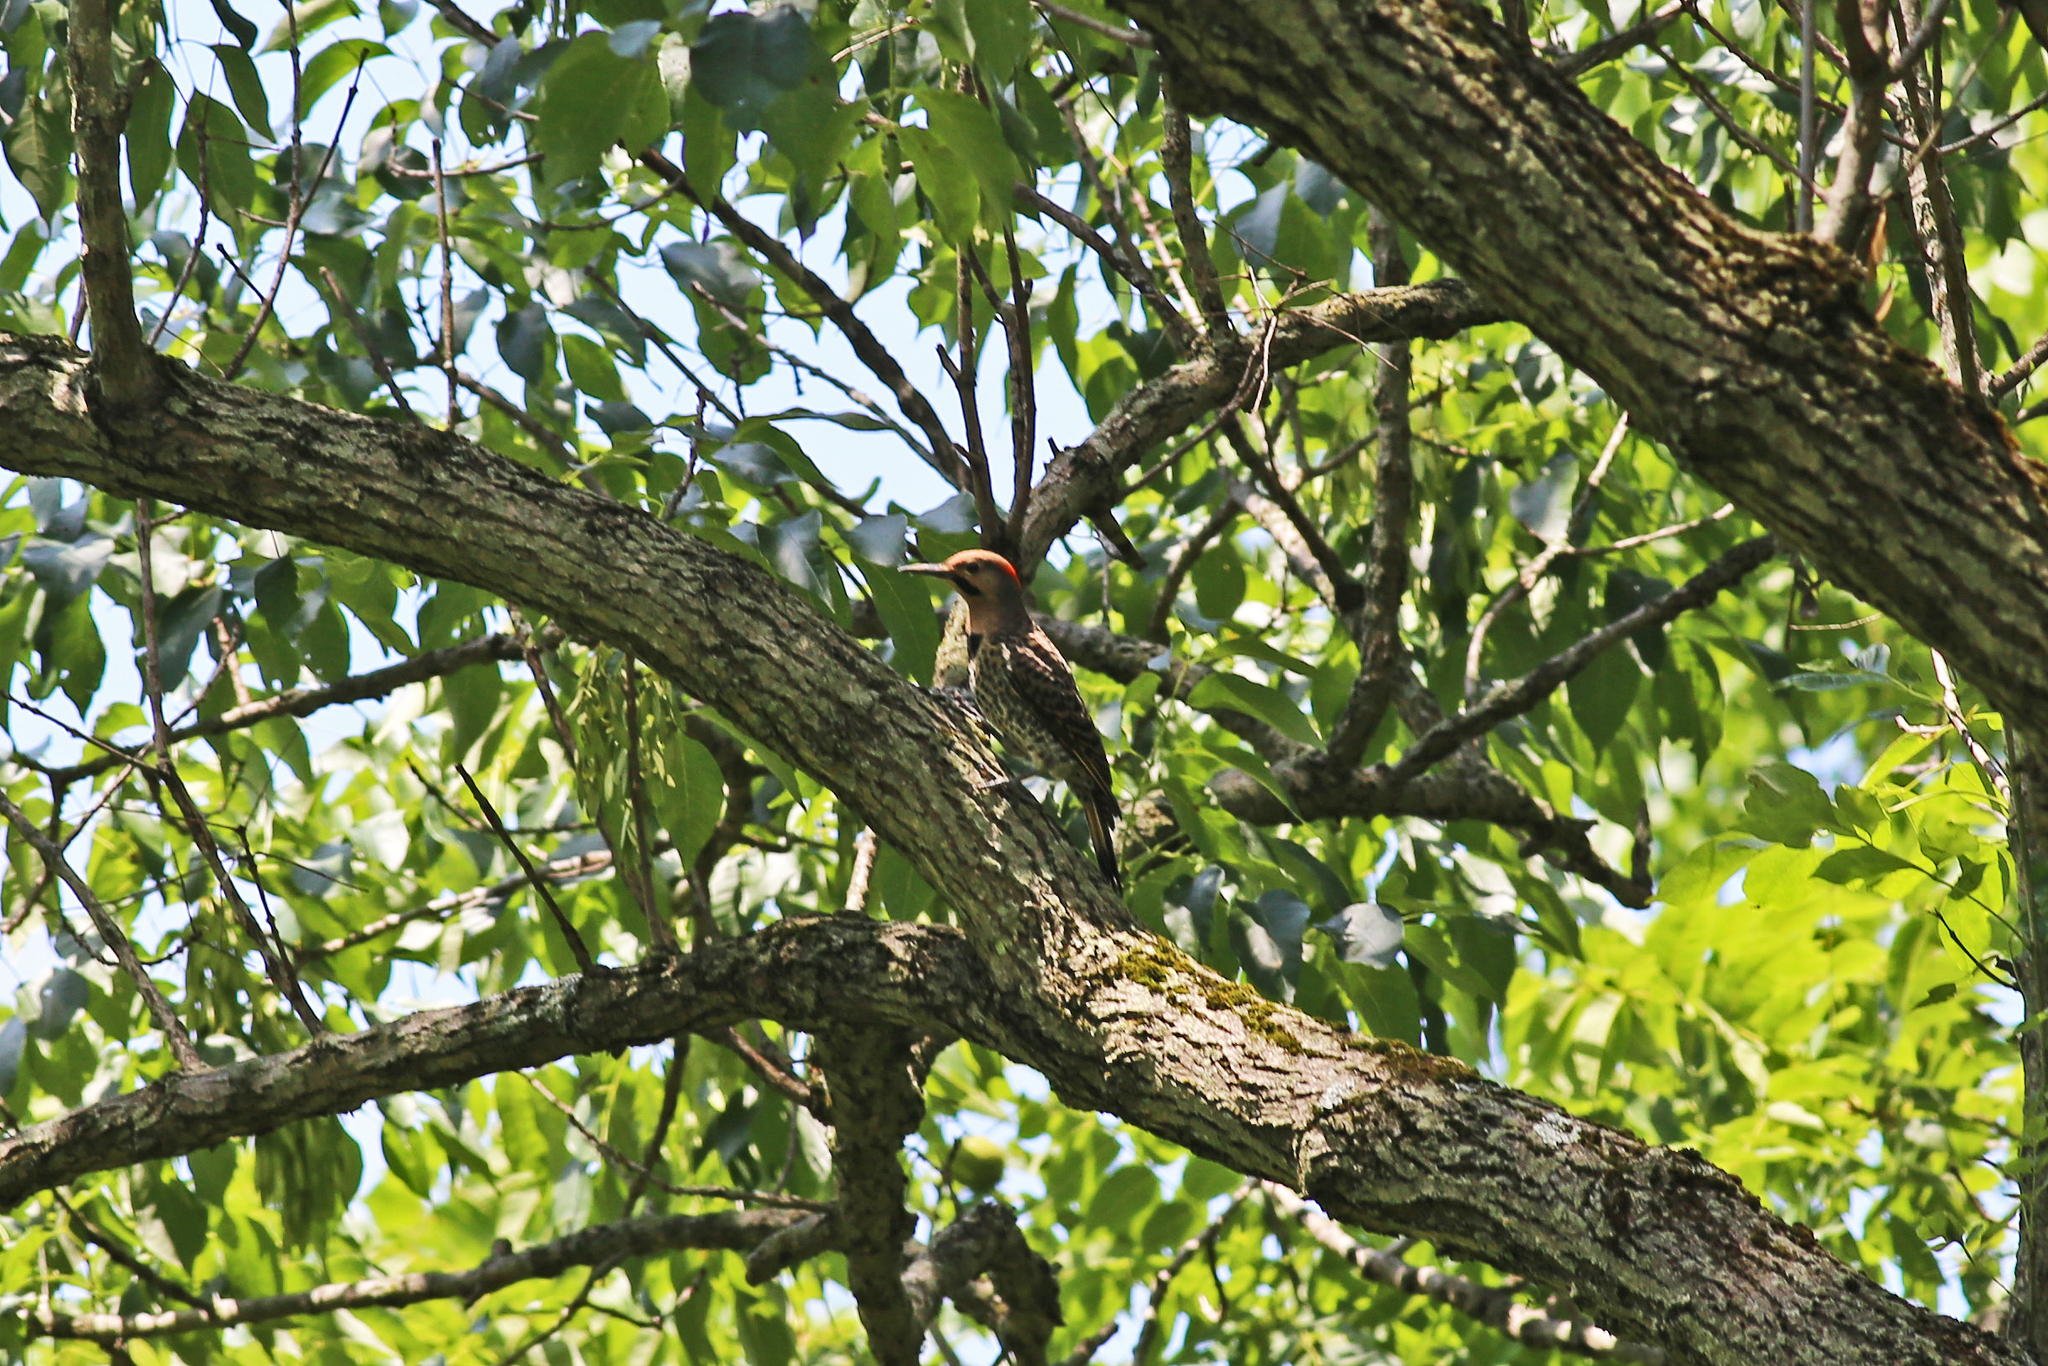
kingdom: Animalia
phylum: Chordata
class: Aves
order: Piciformes
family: Picidae
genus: Colaptes
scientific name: Colaptes auratus
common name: Northern flicker
